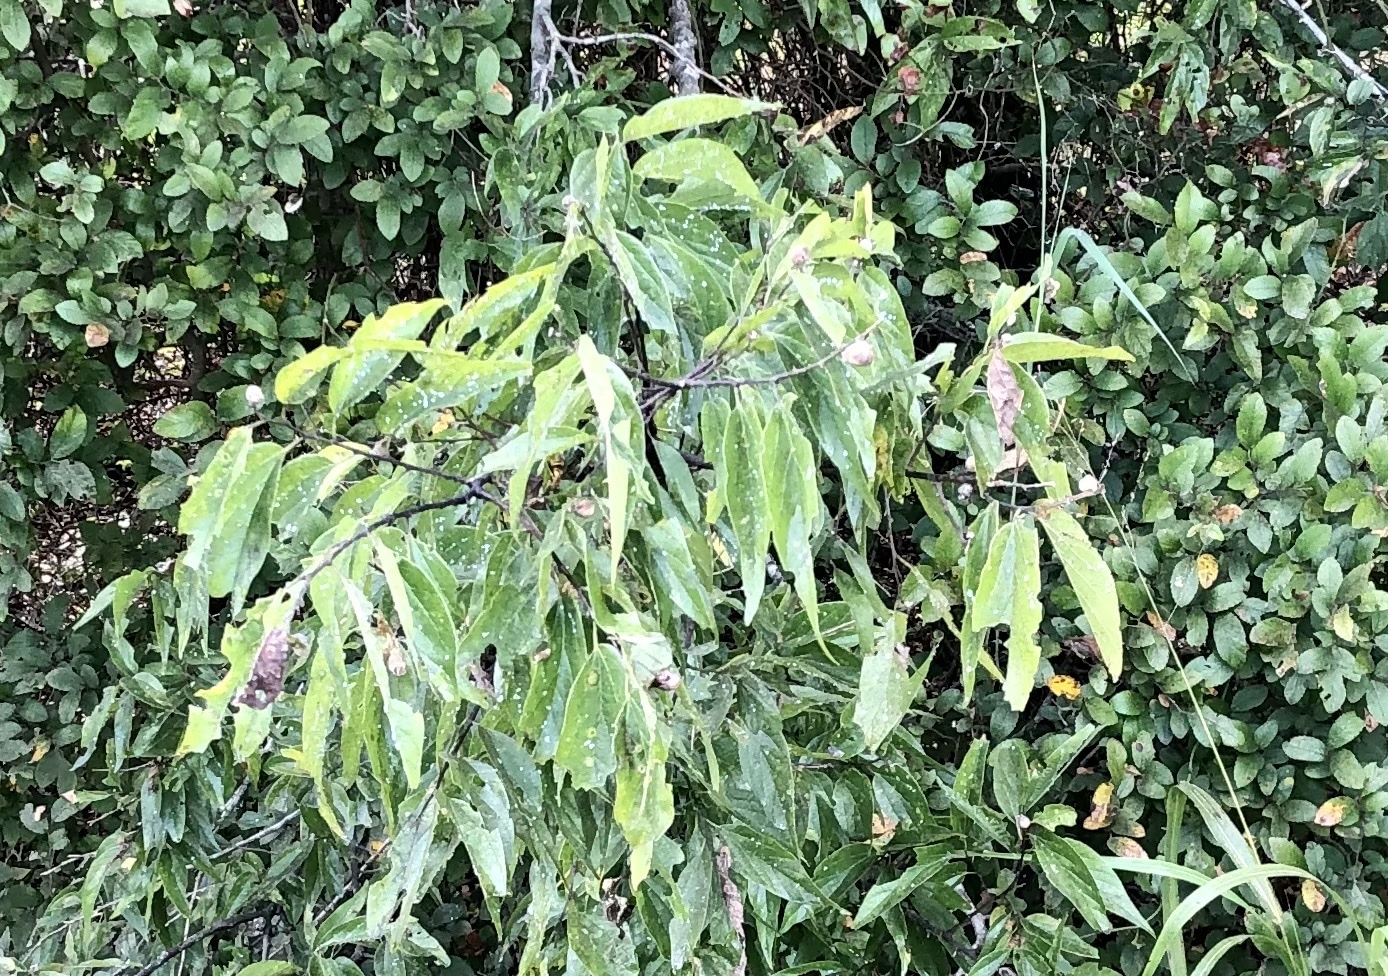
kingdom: Plantae
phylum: Tracheophyta
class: Magnoliopsida
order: Rosales
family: Cannabaceae
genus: Celtis
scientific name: Celtis laevigata
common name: Sugarberry
